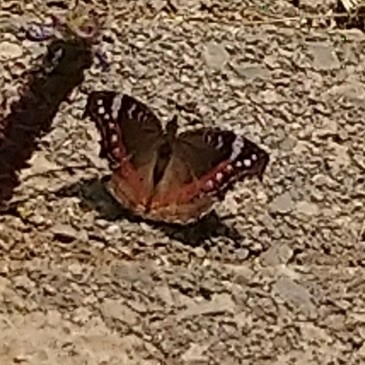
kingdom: Animalia
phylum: Arthropoda
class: Insecta
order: Lepidoptera
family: Nymphalidae
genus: Junonia
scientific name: Junonia archesia
